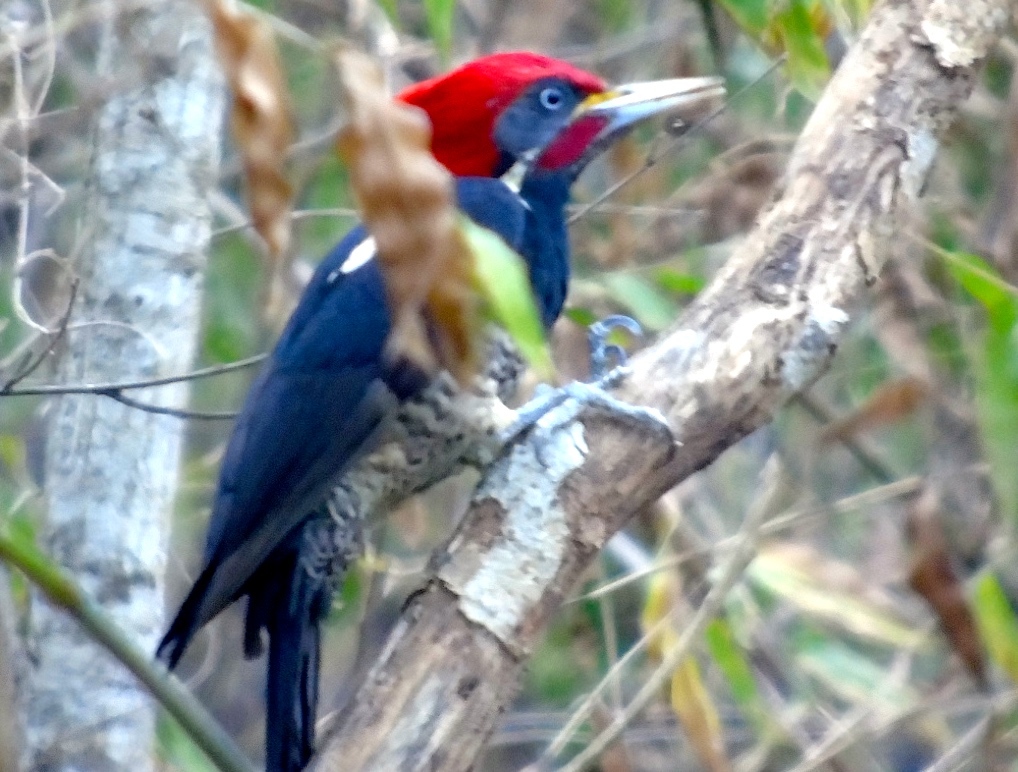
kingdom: Animalia
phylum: Chordata
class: Aves
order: Piciformes
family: Picidae
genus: Dryocopus
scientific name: Dryocopus lineatus
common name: Lineated woodpecker
